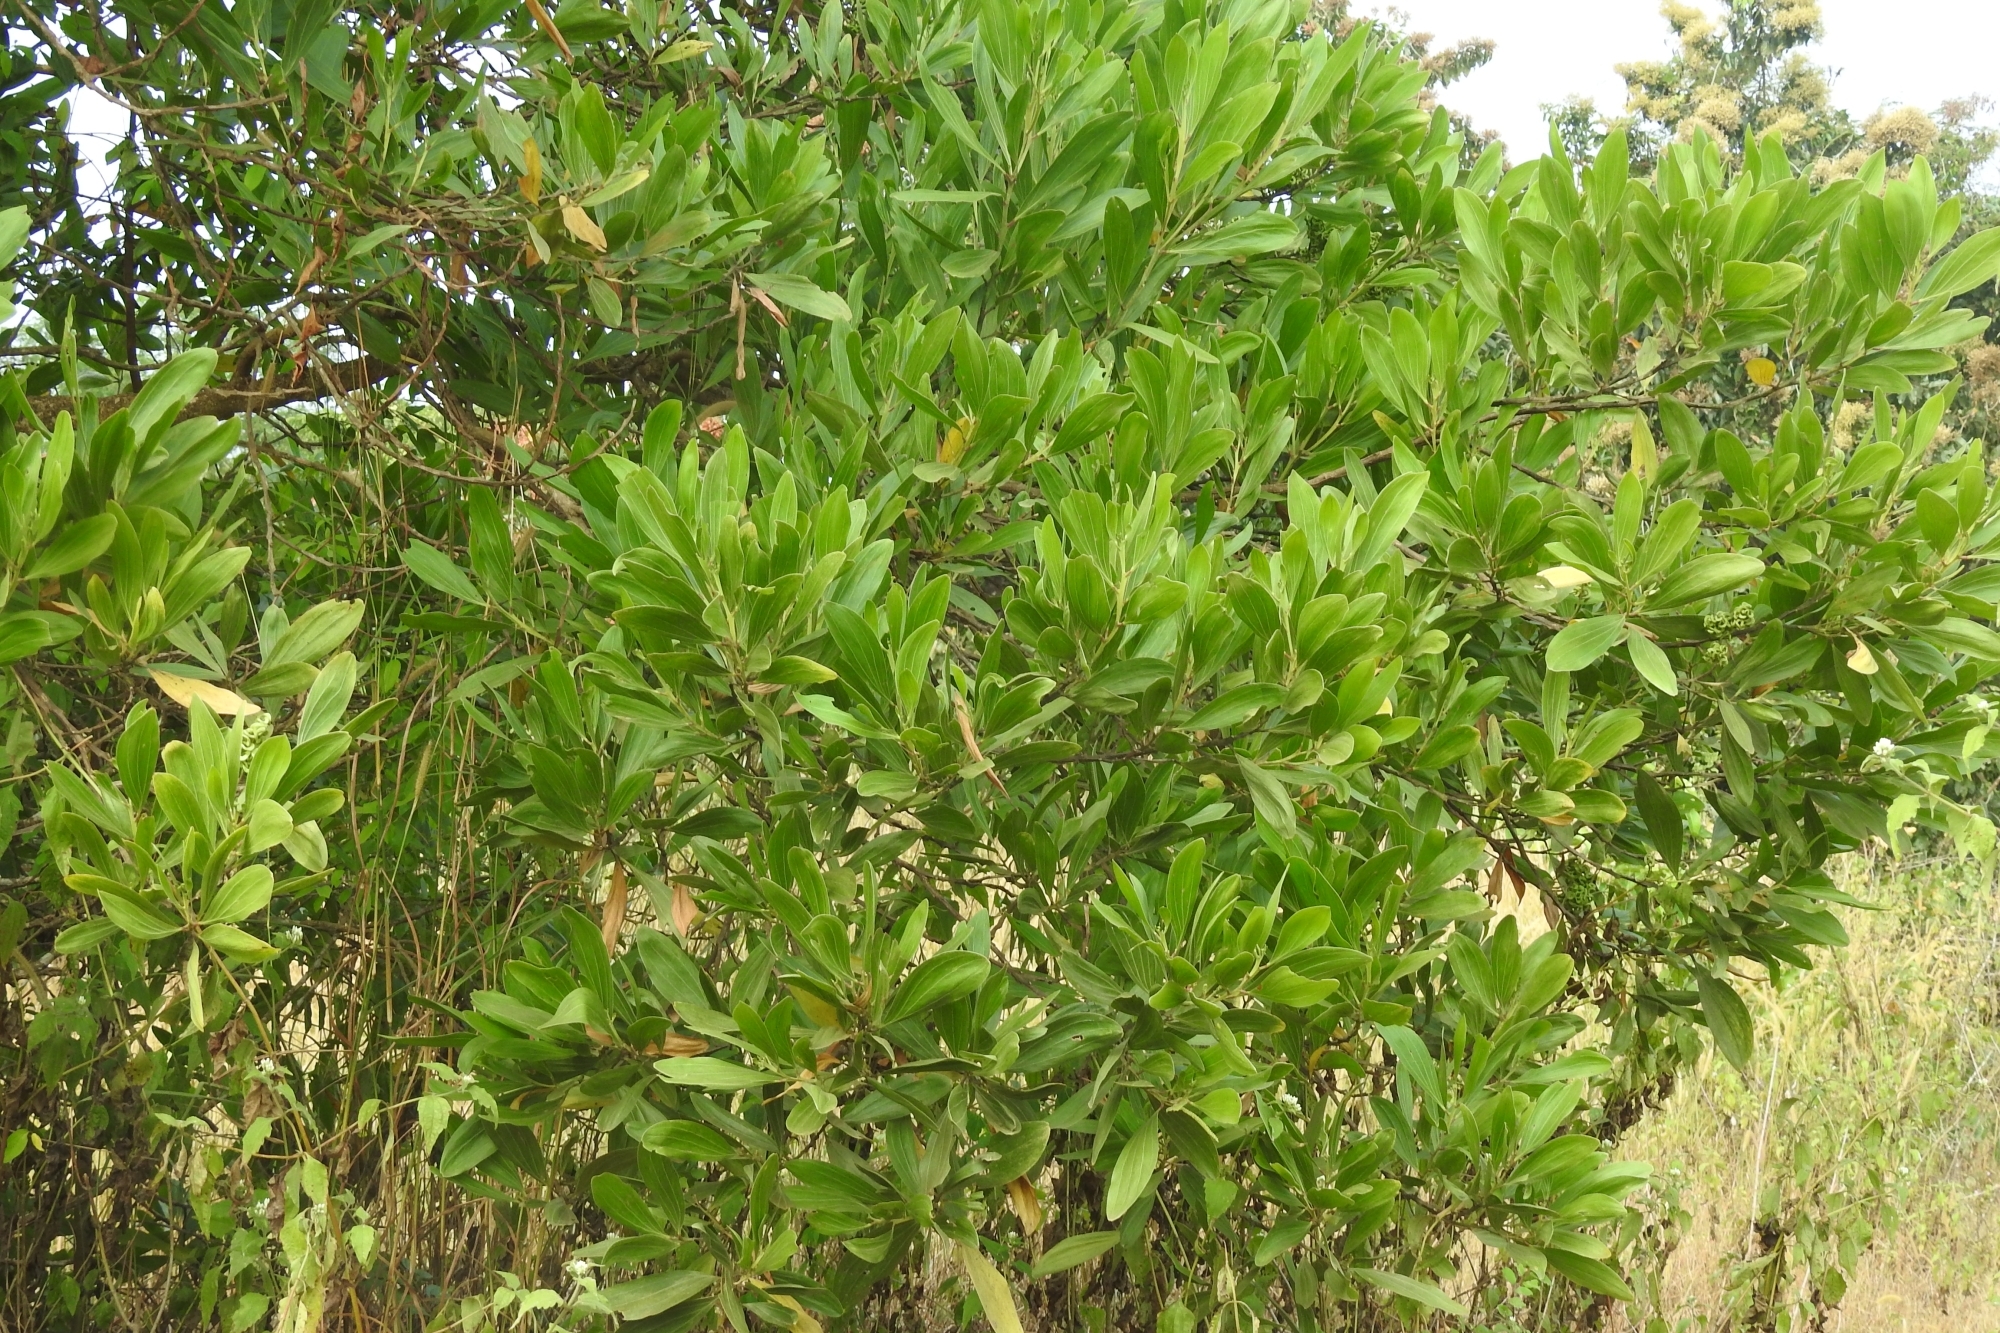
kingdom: Plantae
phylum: Tracheophyta
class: Magnoliopsida
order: Fabales
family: Fabaceae
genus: Acacia
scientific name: Acacia mangium
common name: Black wattle
